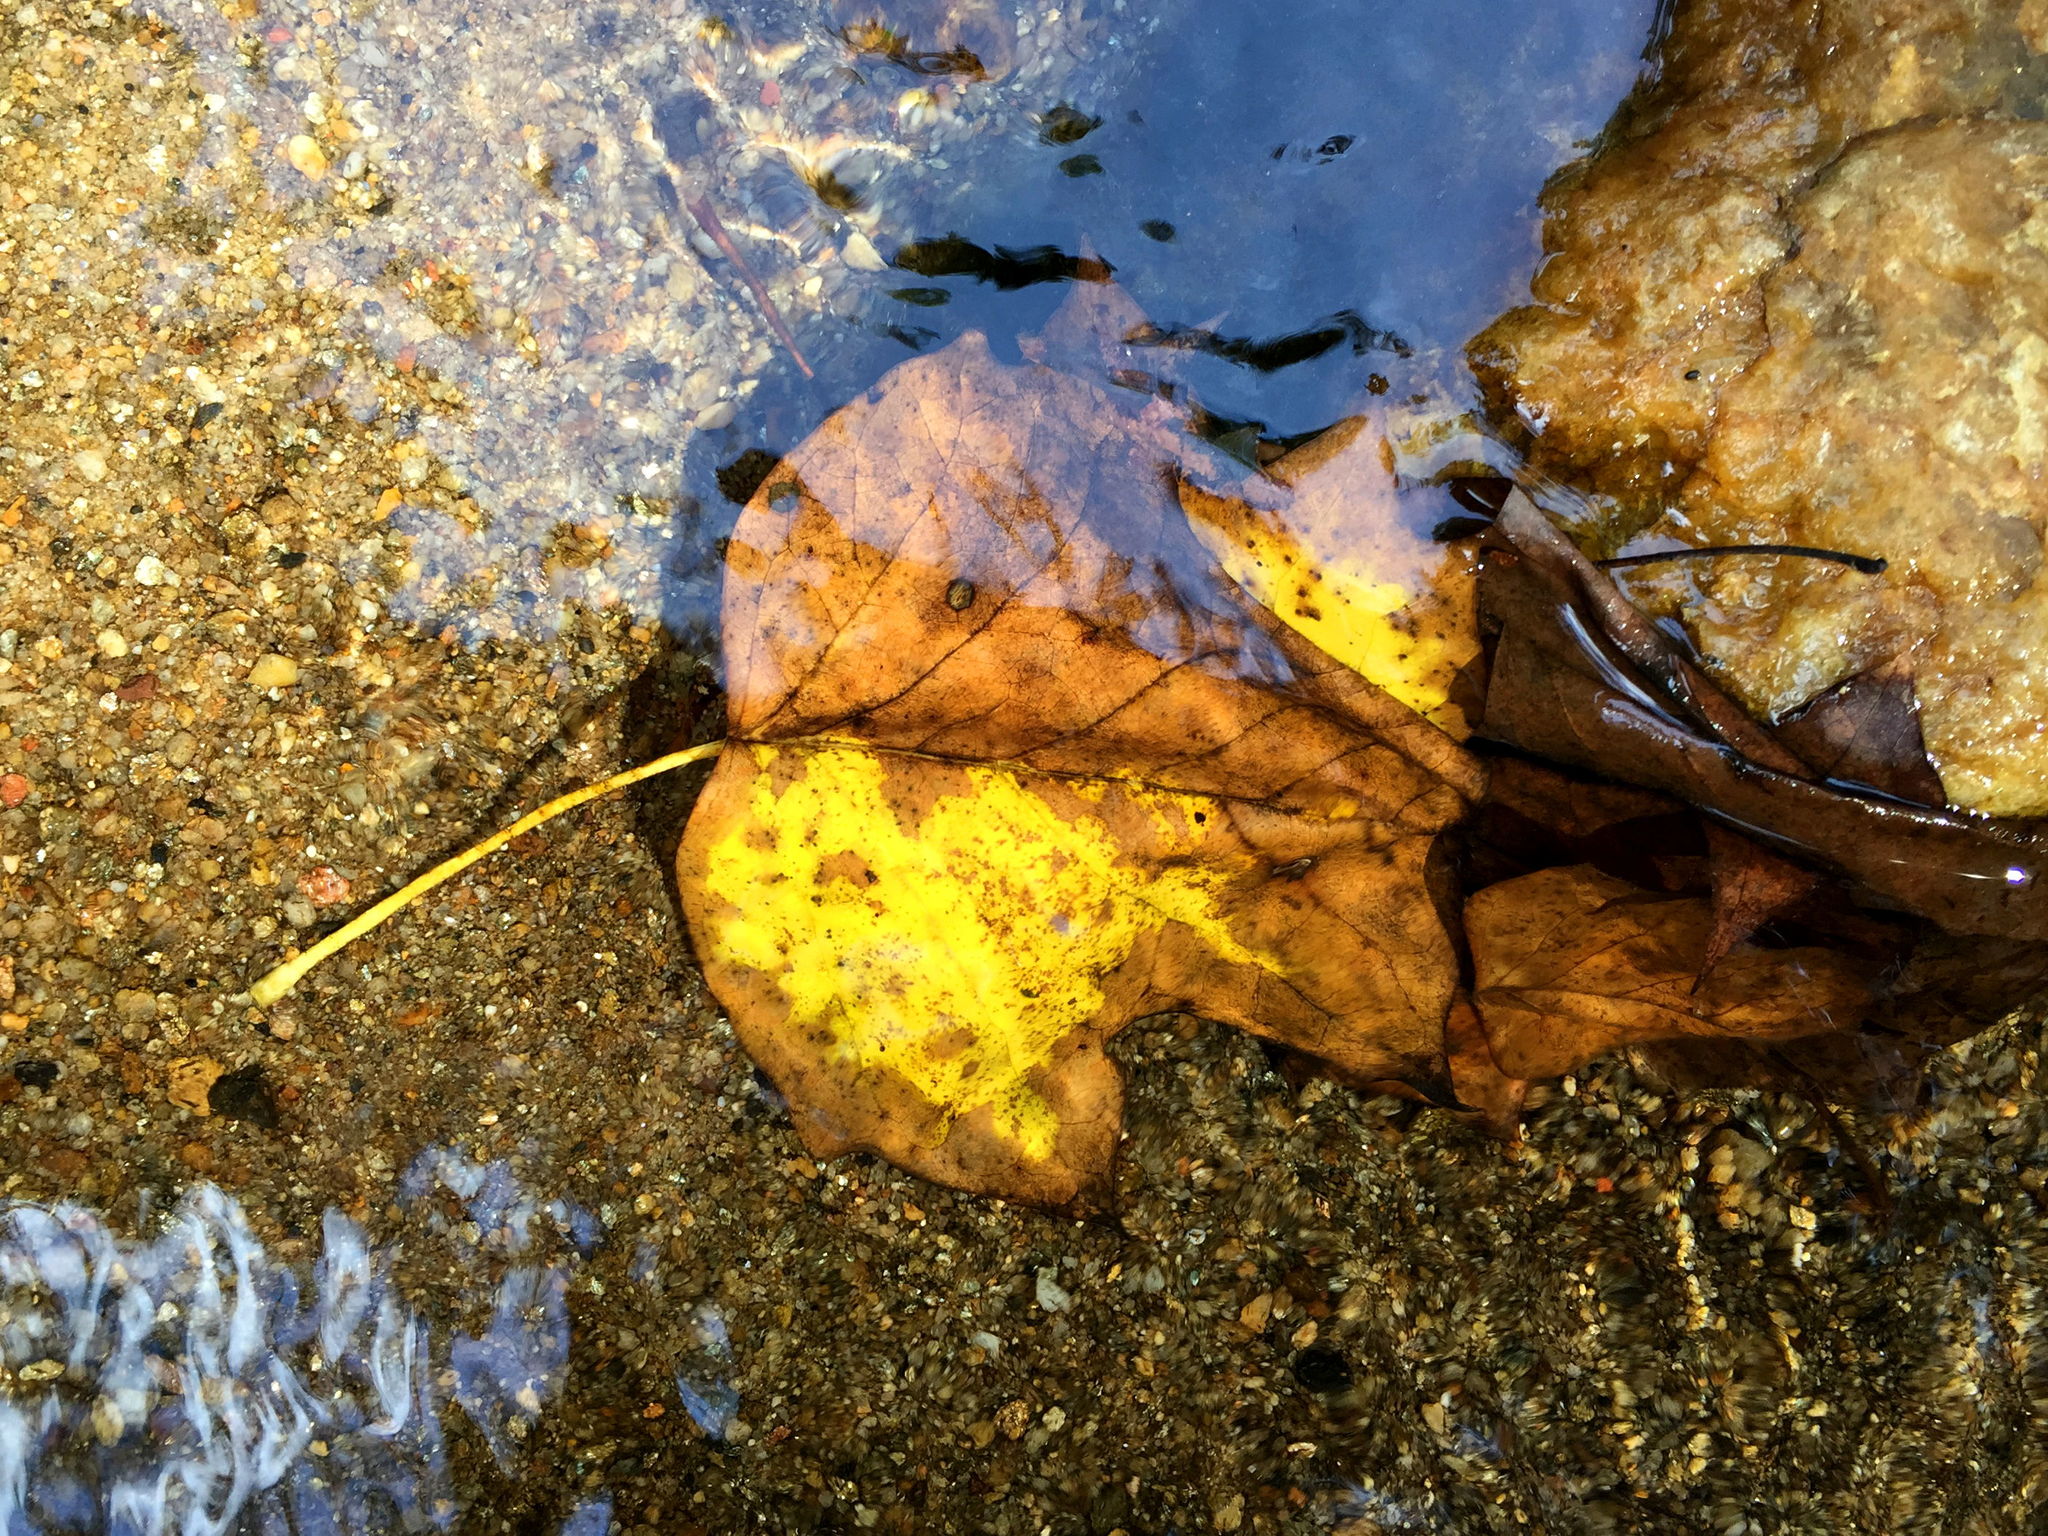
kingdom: Plantae
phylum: Tracheophyta
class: Magnoliopsida
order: Magnoliales
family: Magnoliaceae
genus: Liriodendron
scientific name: Liriodendron tulipifera
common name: Tulip tree
